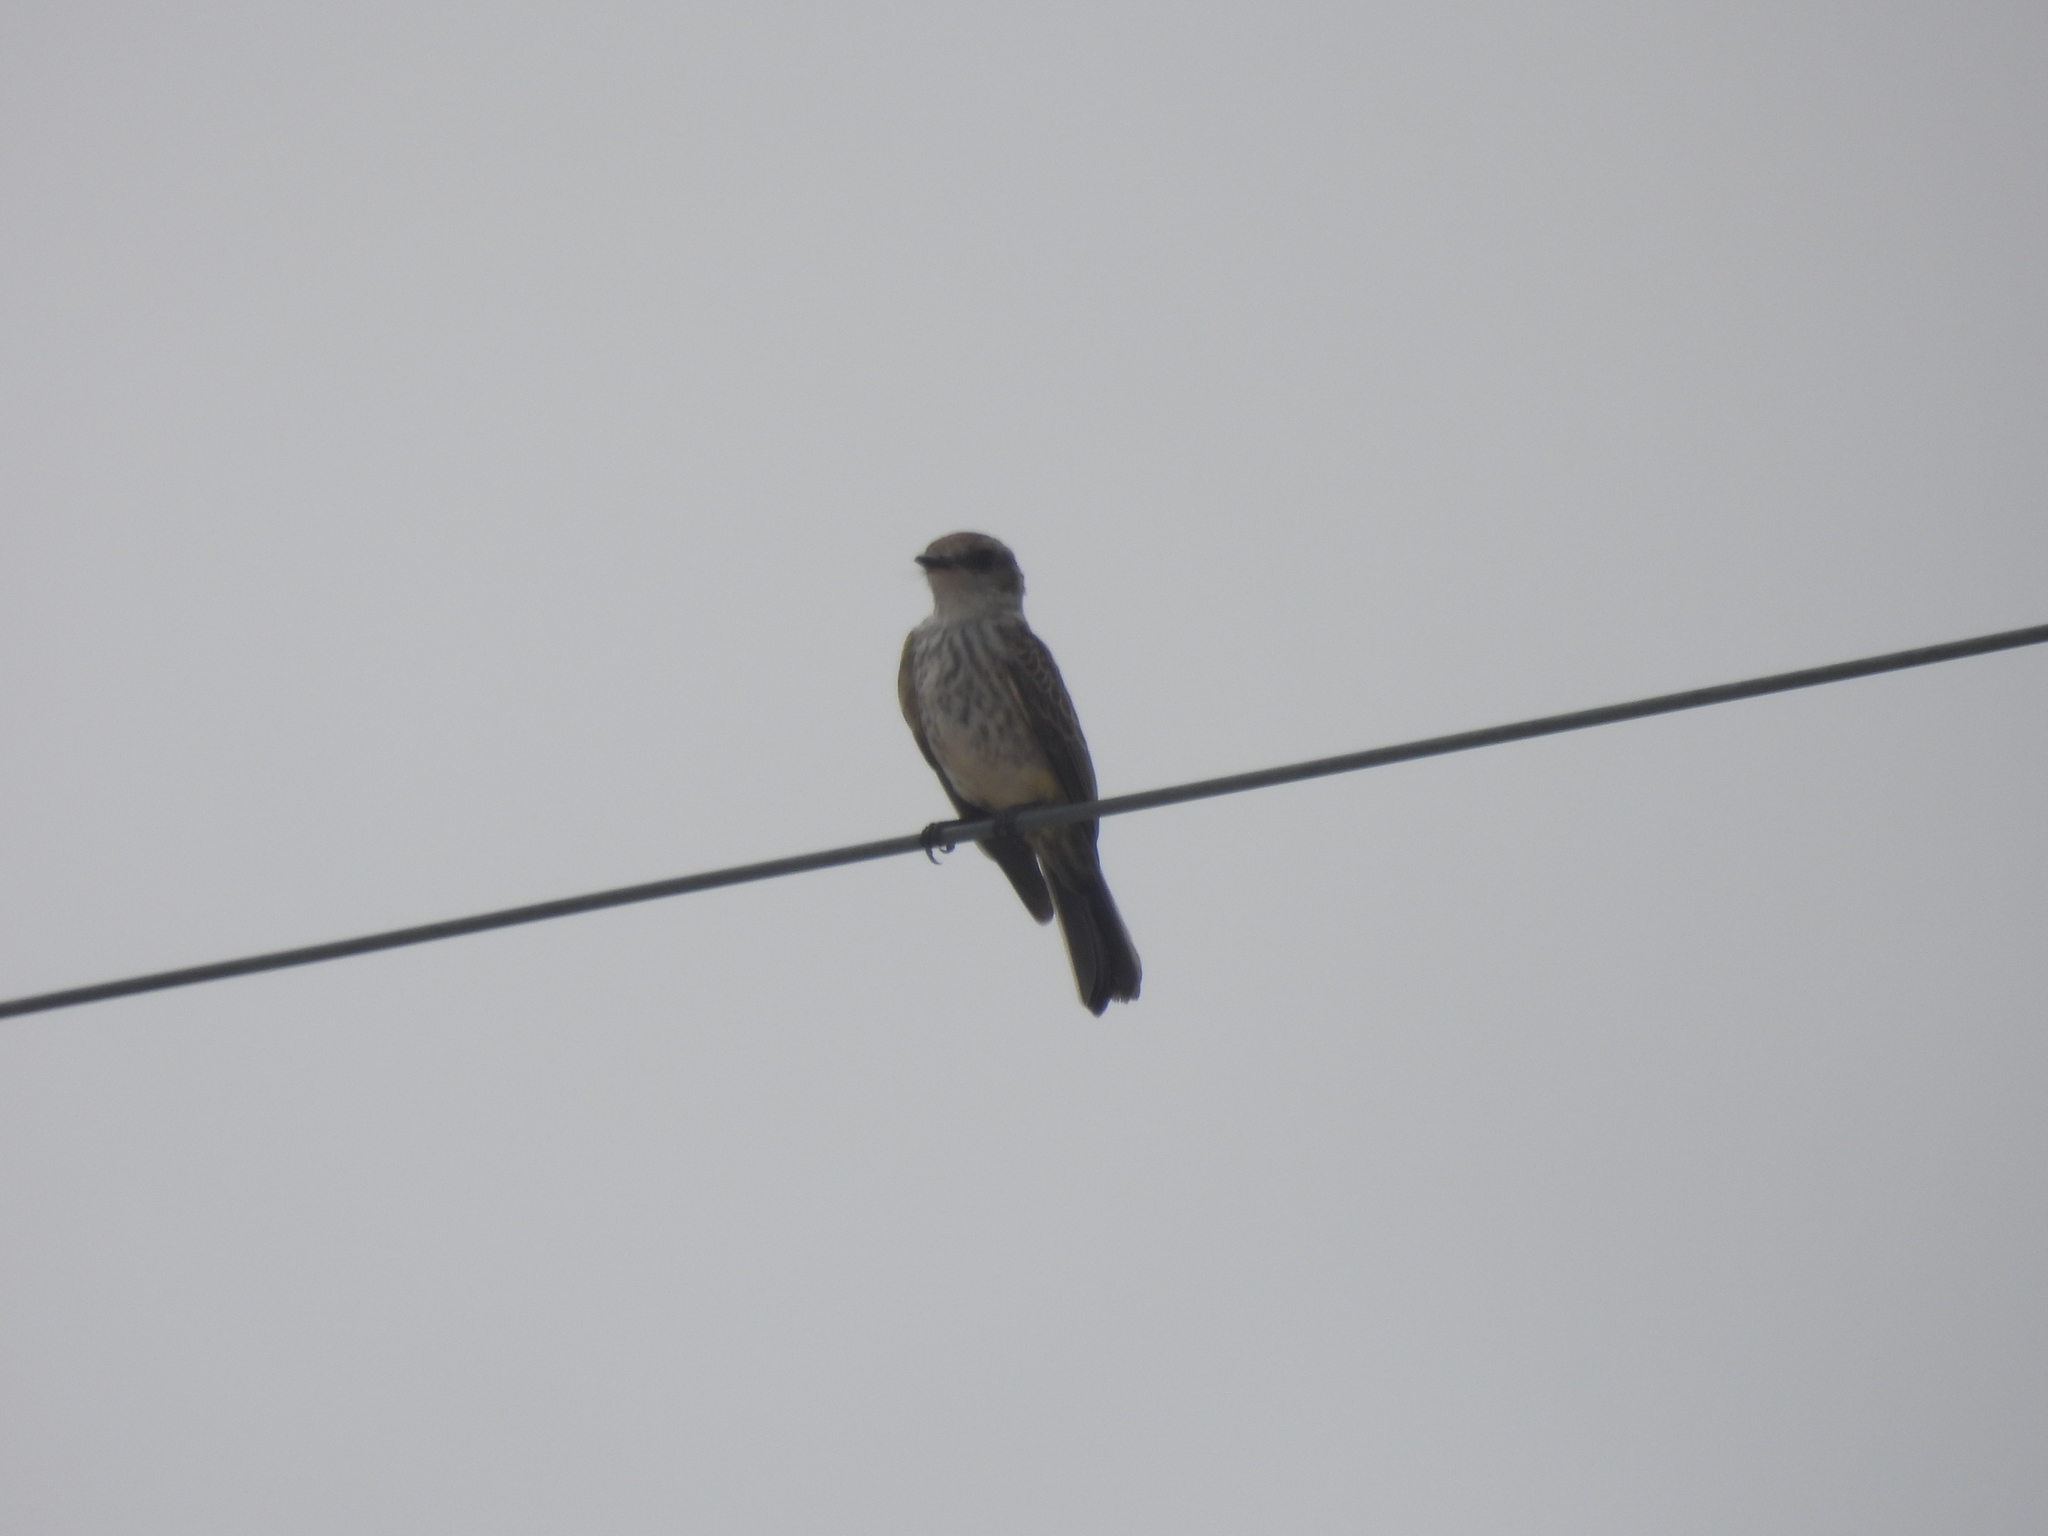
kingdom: Animalia
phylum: Chordata
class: Aves
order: Passeriformes
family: Tyrannidae
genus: Pyrocephalus
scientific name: Pyrocephalus rubinus
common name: Vermilion flycatcher
